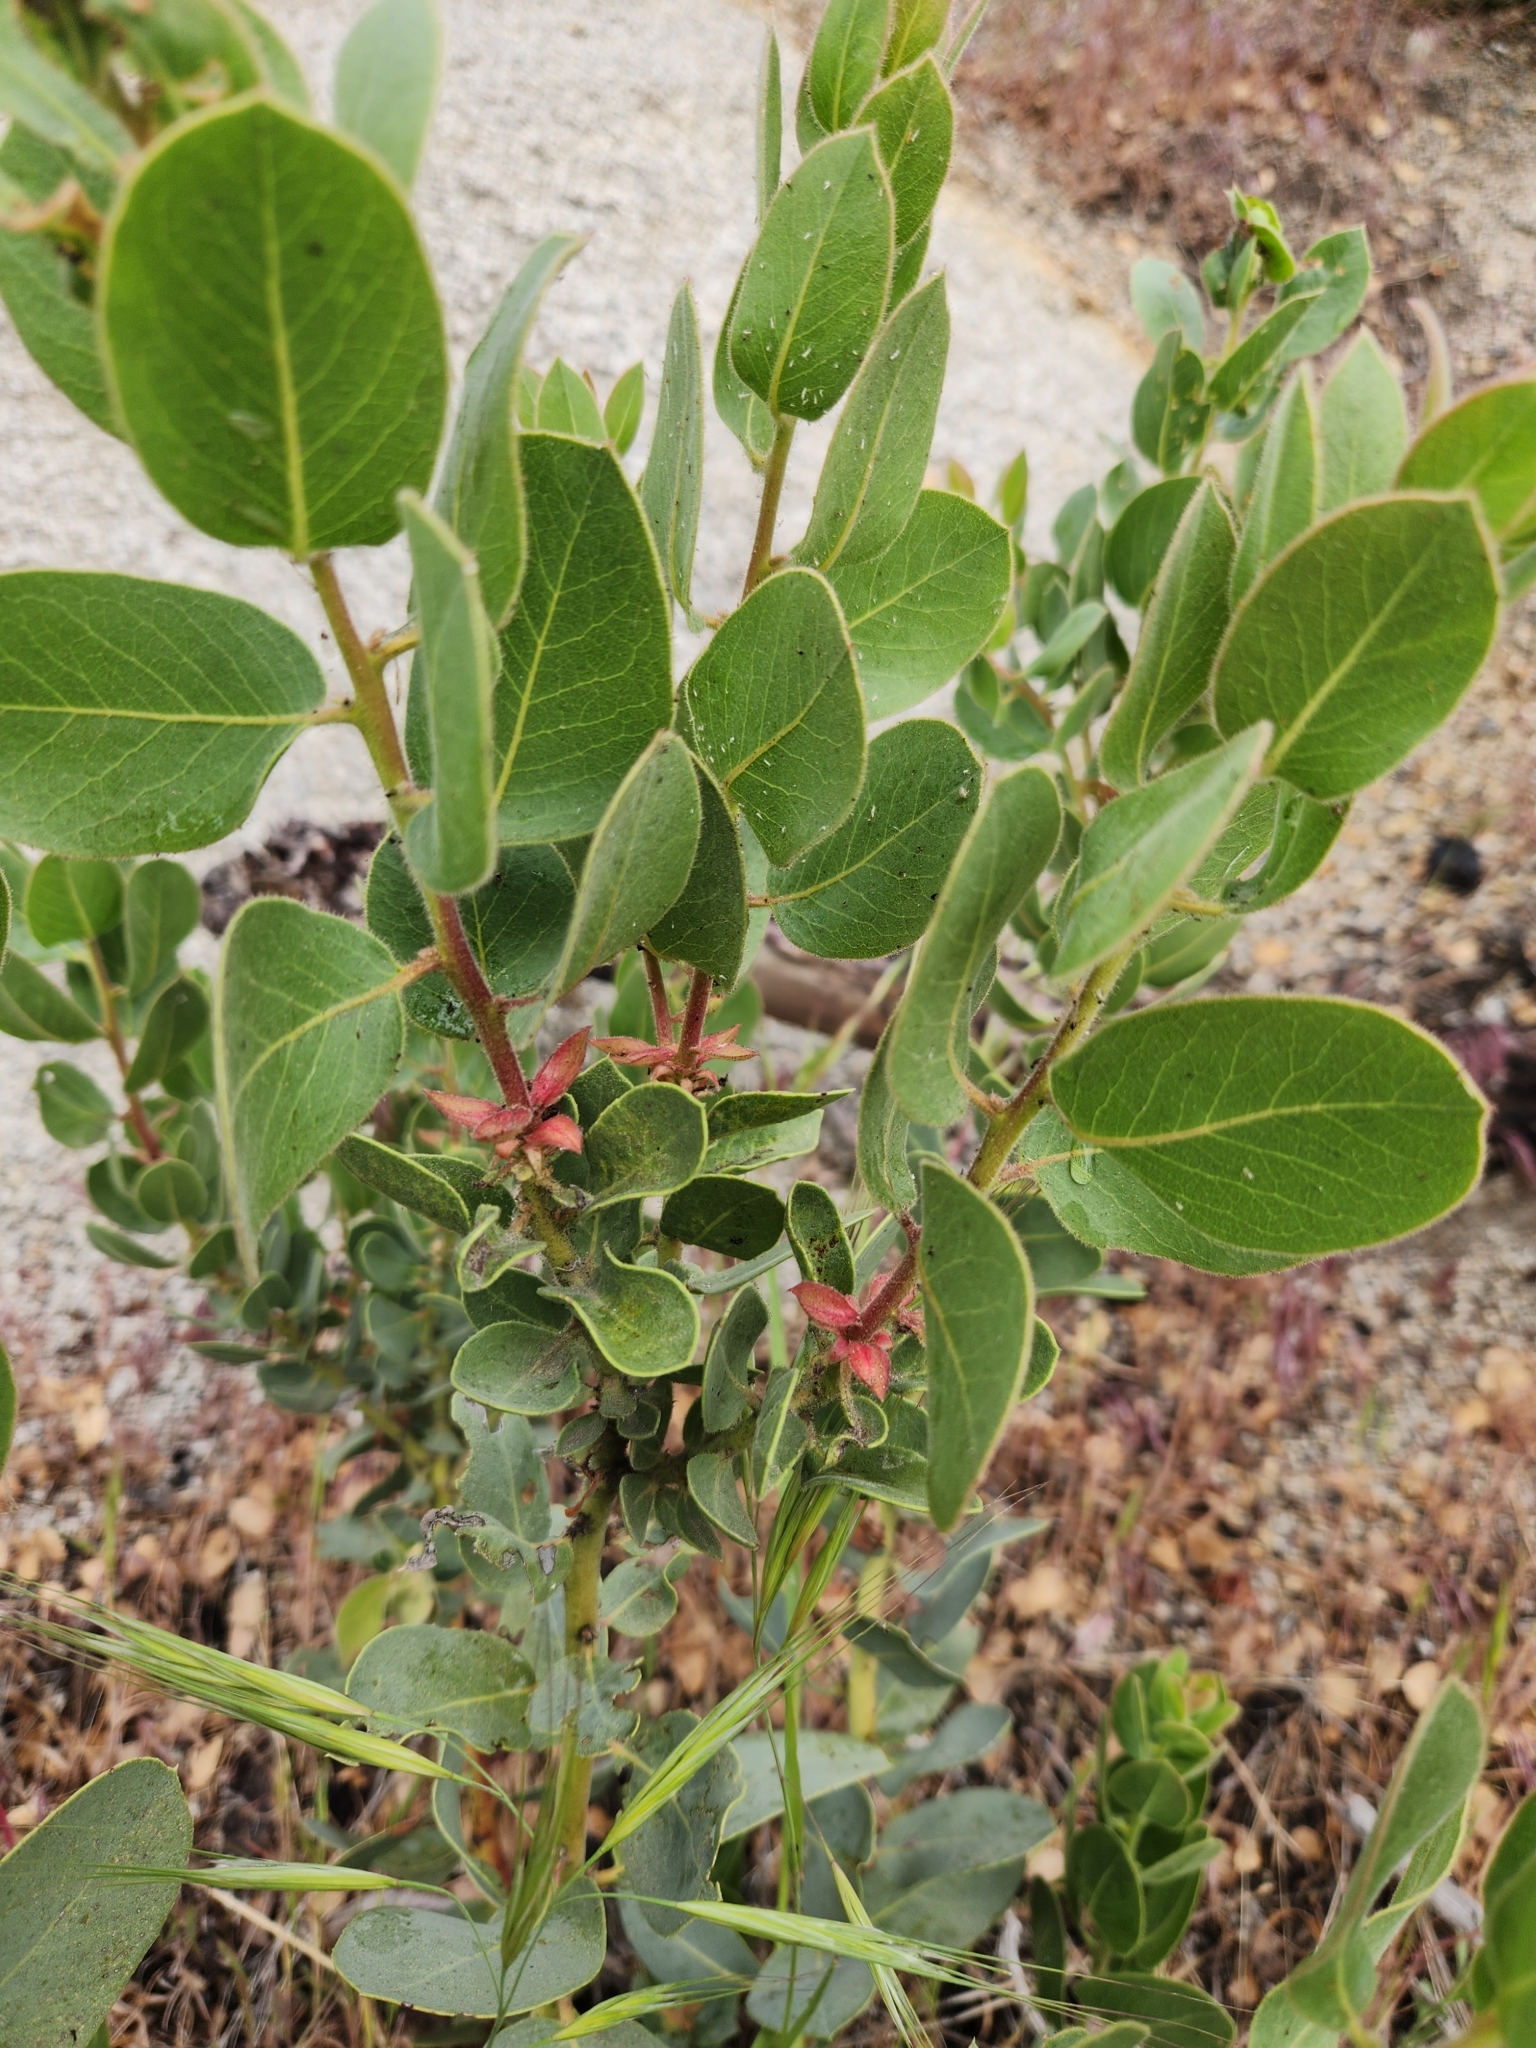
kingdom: Plantae
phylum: Tracheophyta
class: Magnoliopsida
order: Ericales
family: Ericaceae
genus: Arctostaphylos
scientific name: Arctostaphylos pringlei
